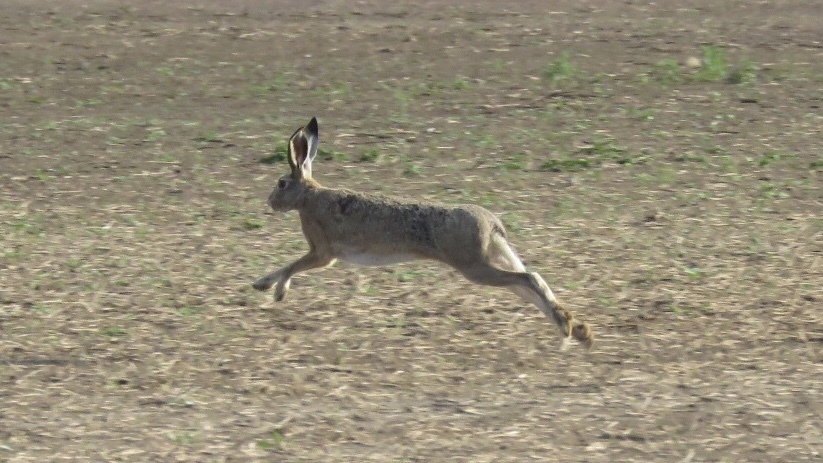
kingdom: Animalia
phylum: Chordata
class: Mammalia
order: Lagomorpha
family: Leporidae
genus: Lepus
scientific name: Lepus europaeus
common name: European hare
